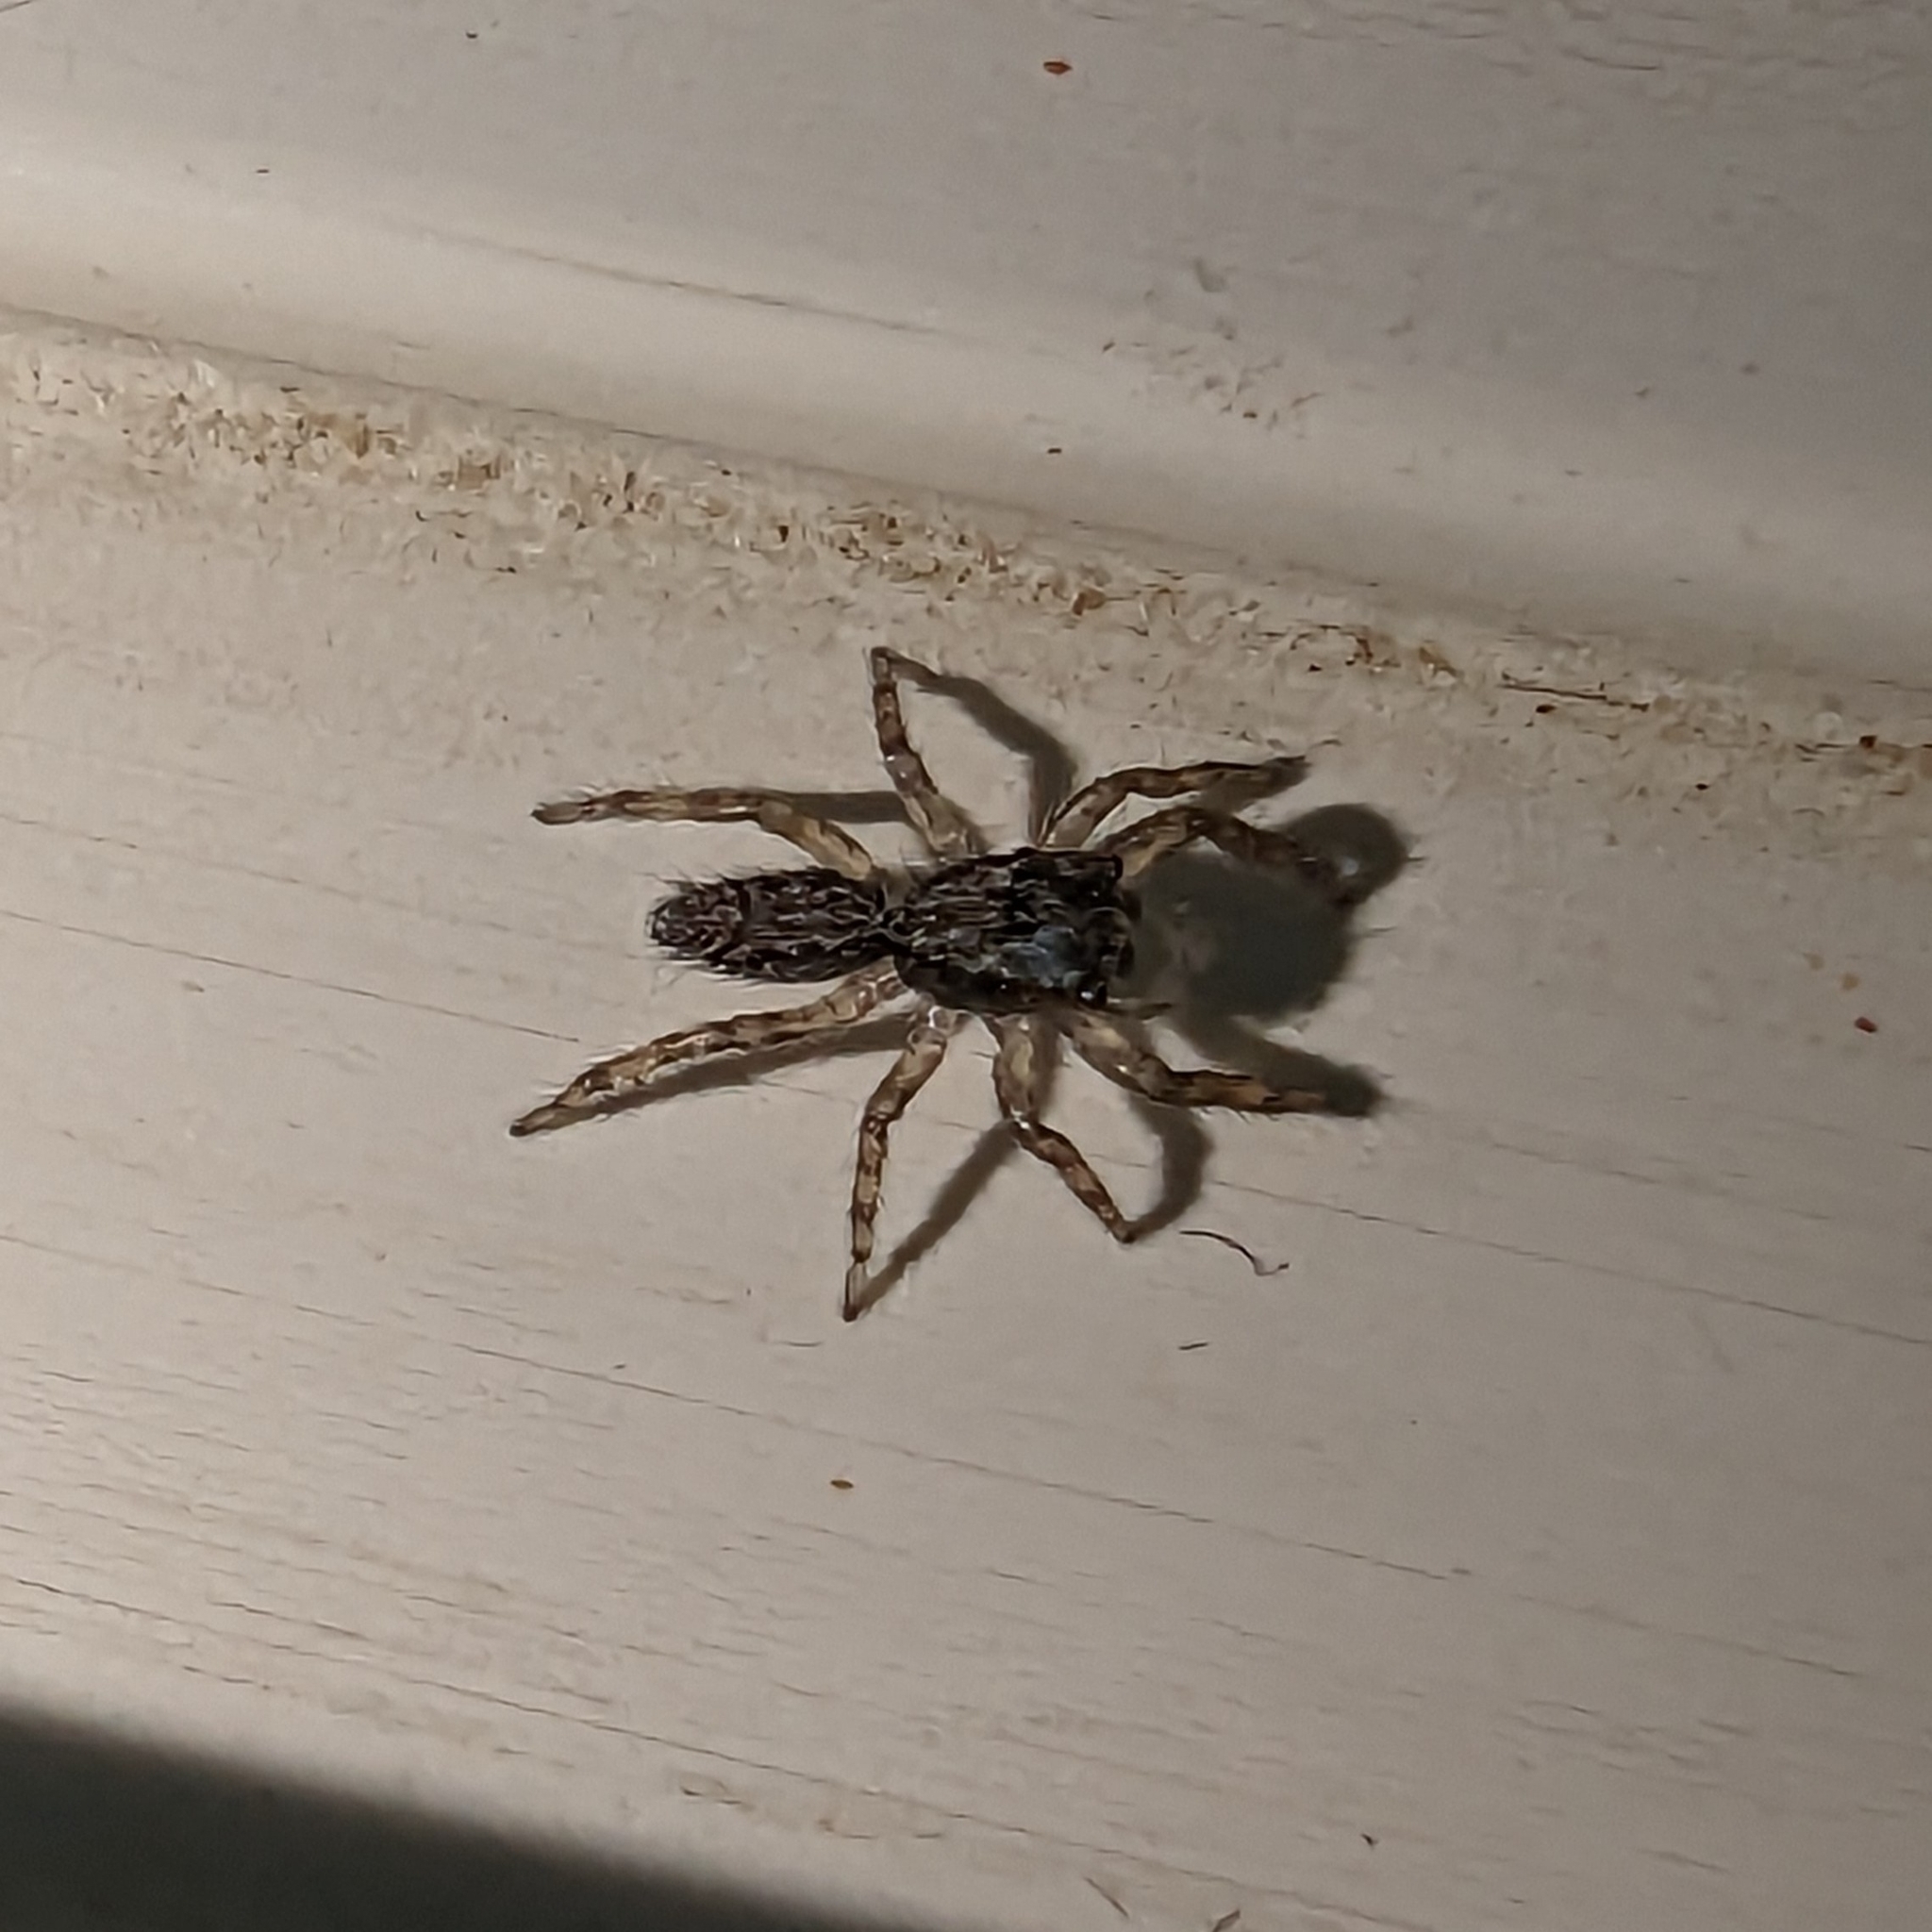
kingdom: Animalia
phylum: Arthropoda
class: Arachnida
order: Araneae
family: Salticidae
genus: Platycryptus
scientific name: Platycryptus californicus
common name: Jumping spiders
